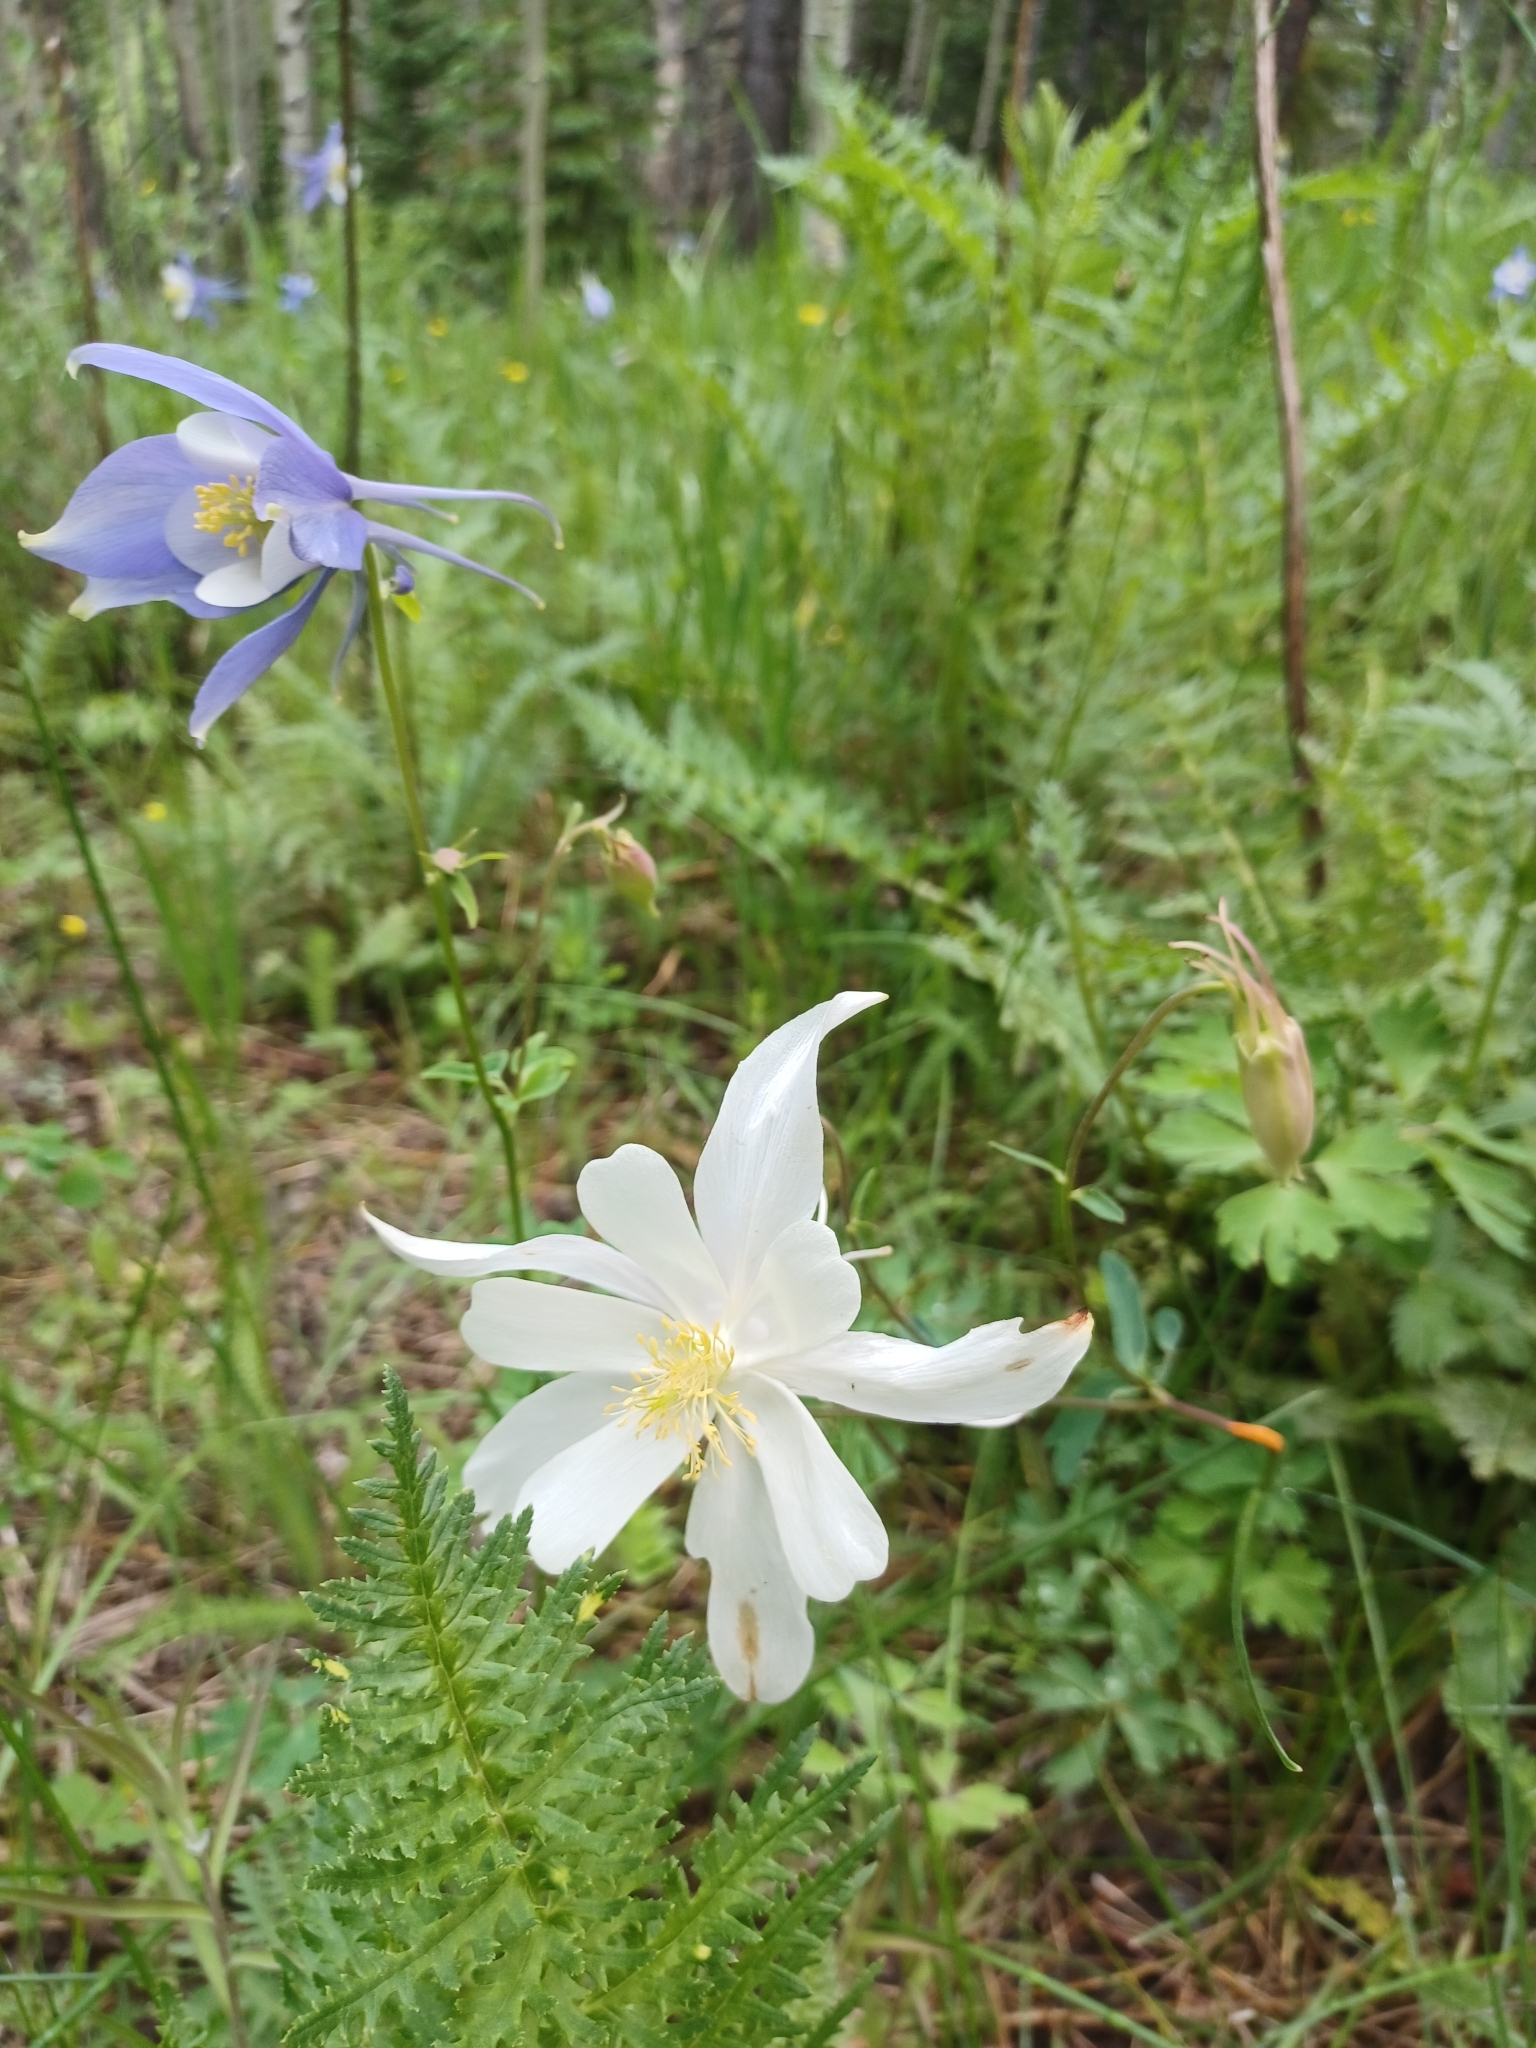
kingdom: Plantae
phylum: Tracheophyta
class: Magnoliopsida
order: Ranunculales
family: Ranunculaceae
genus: Aquilegia
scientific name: Aquilegia coerulea
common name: Rocky mountain columbine
